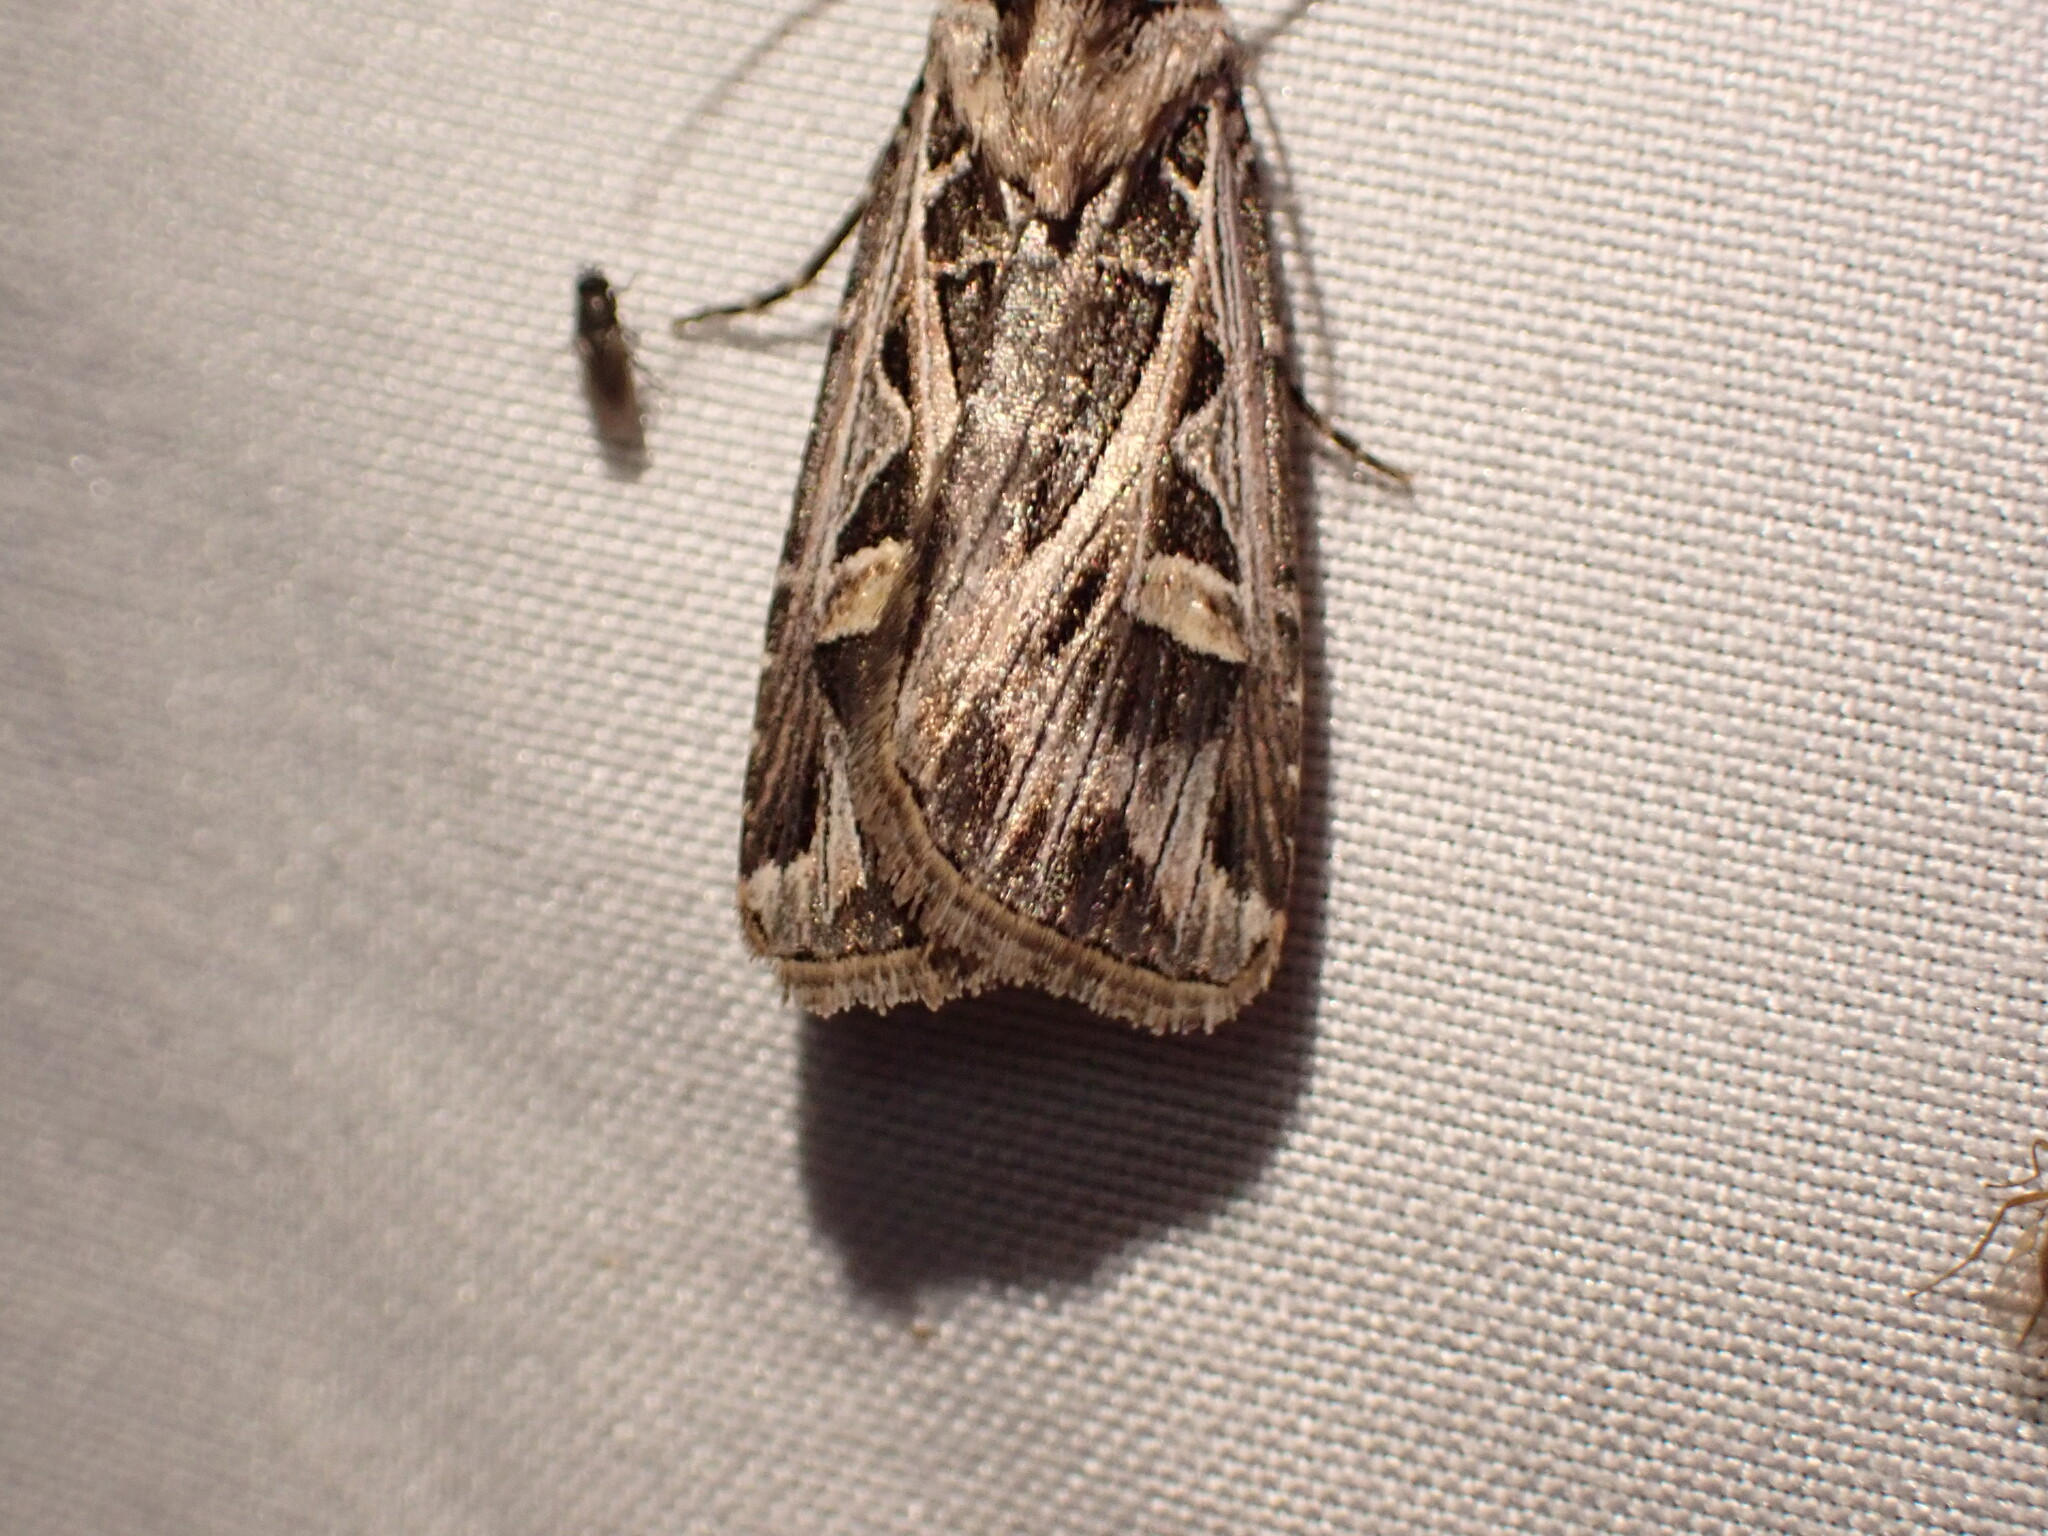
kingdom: Animalia
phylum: Arthropoda
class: Insecta
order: Lepidoptera
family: Noctuidae
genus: Feltia
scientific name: Feltia jaculifera
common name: Dingy cutworm moth
